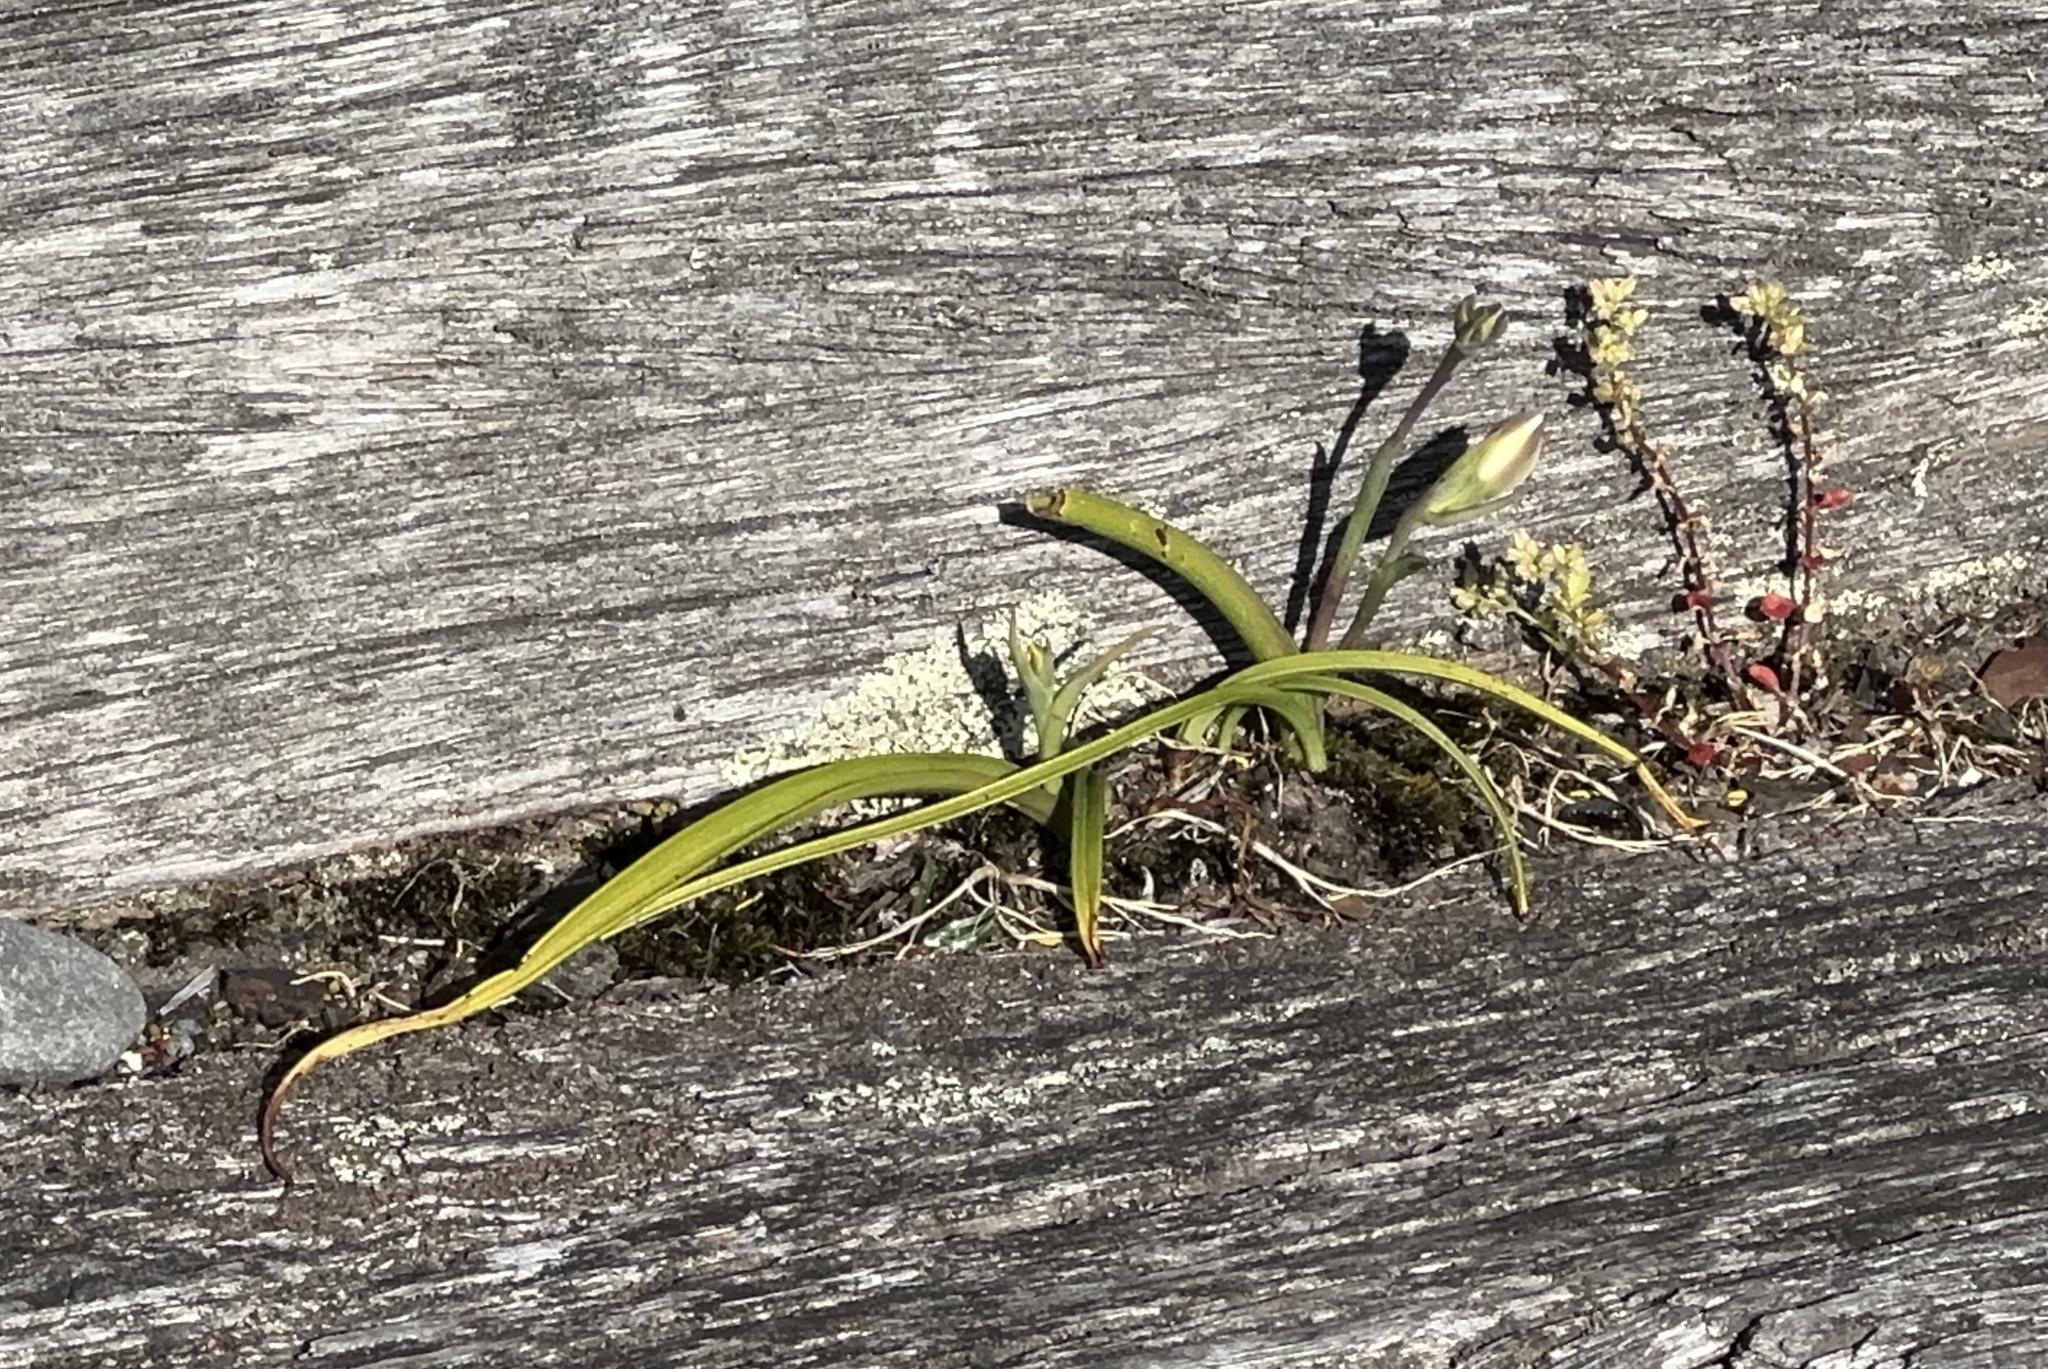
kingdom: Plantae
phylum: Tracheophyta
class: Liliopsida
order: Asparagales
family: Orchidaceae
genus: Thelymitra
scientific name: Thelymitra longifolia
